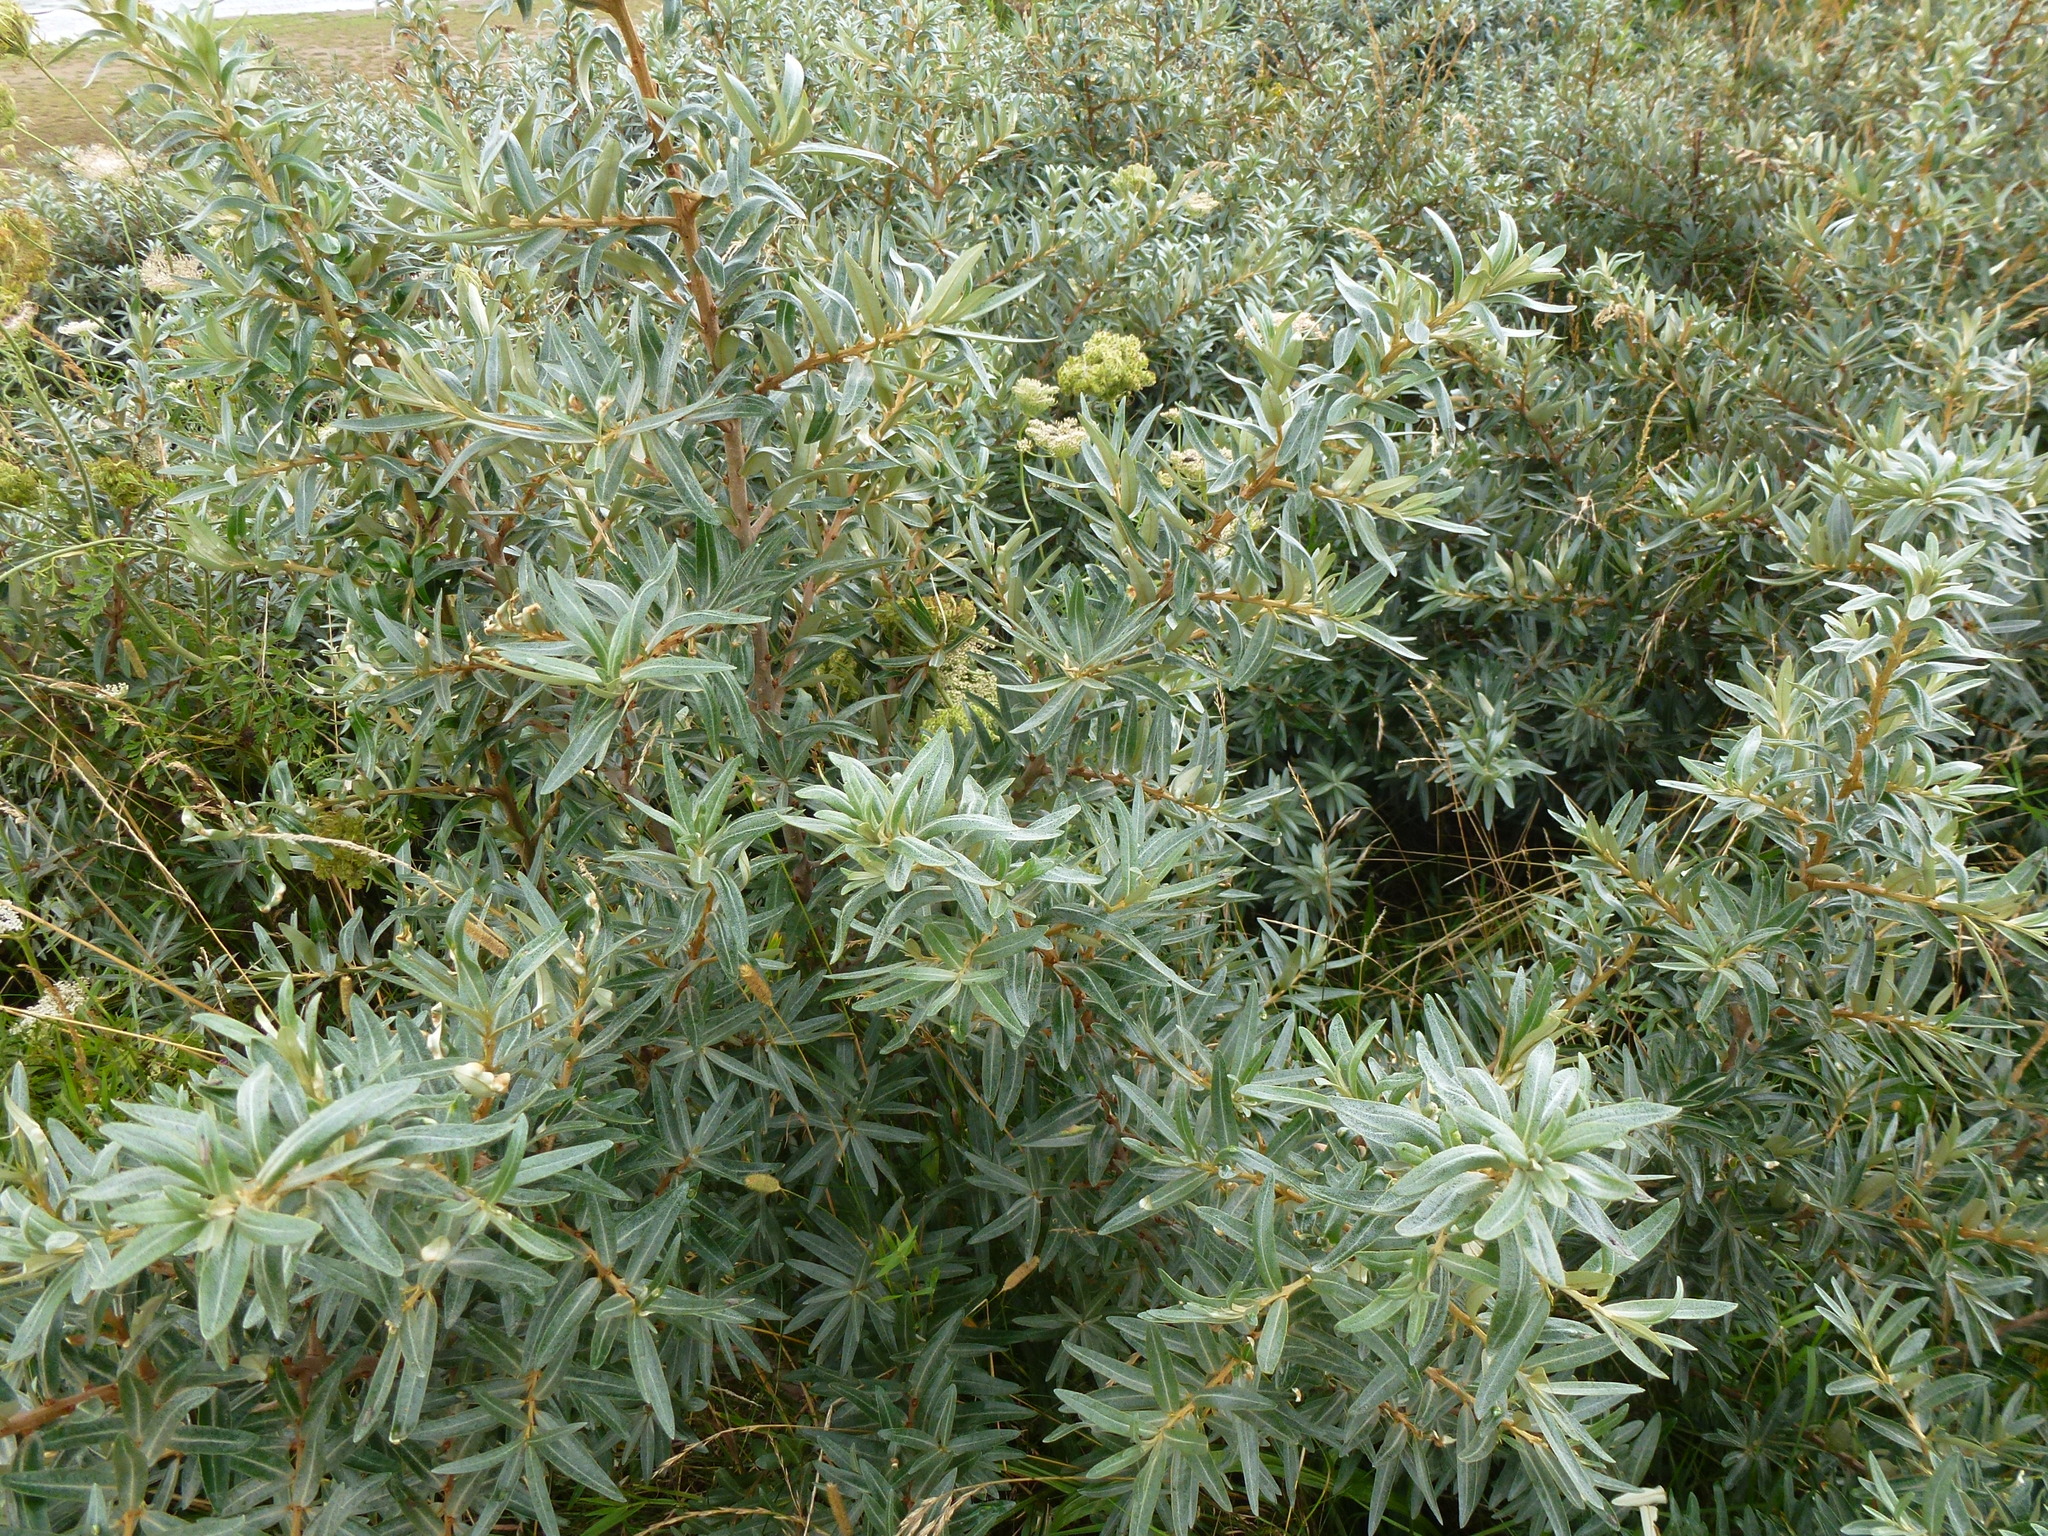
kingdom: Plantae
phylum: Tracheophyta
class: Magnoliopsida
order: Rosales
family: Elaeagnaceae
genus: Hippophae
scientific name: Hippophae rhamnoides
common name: Sea-buckthorn
